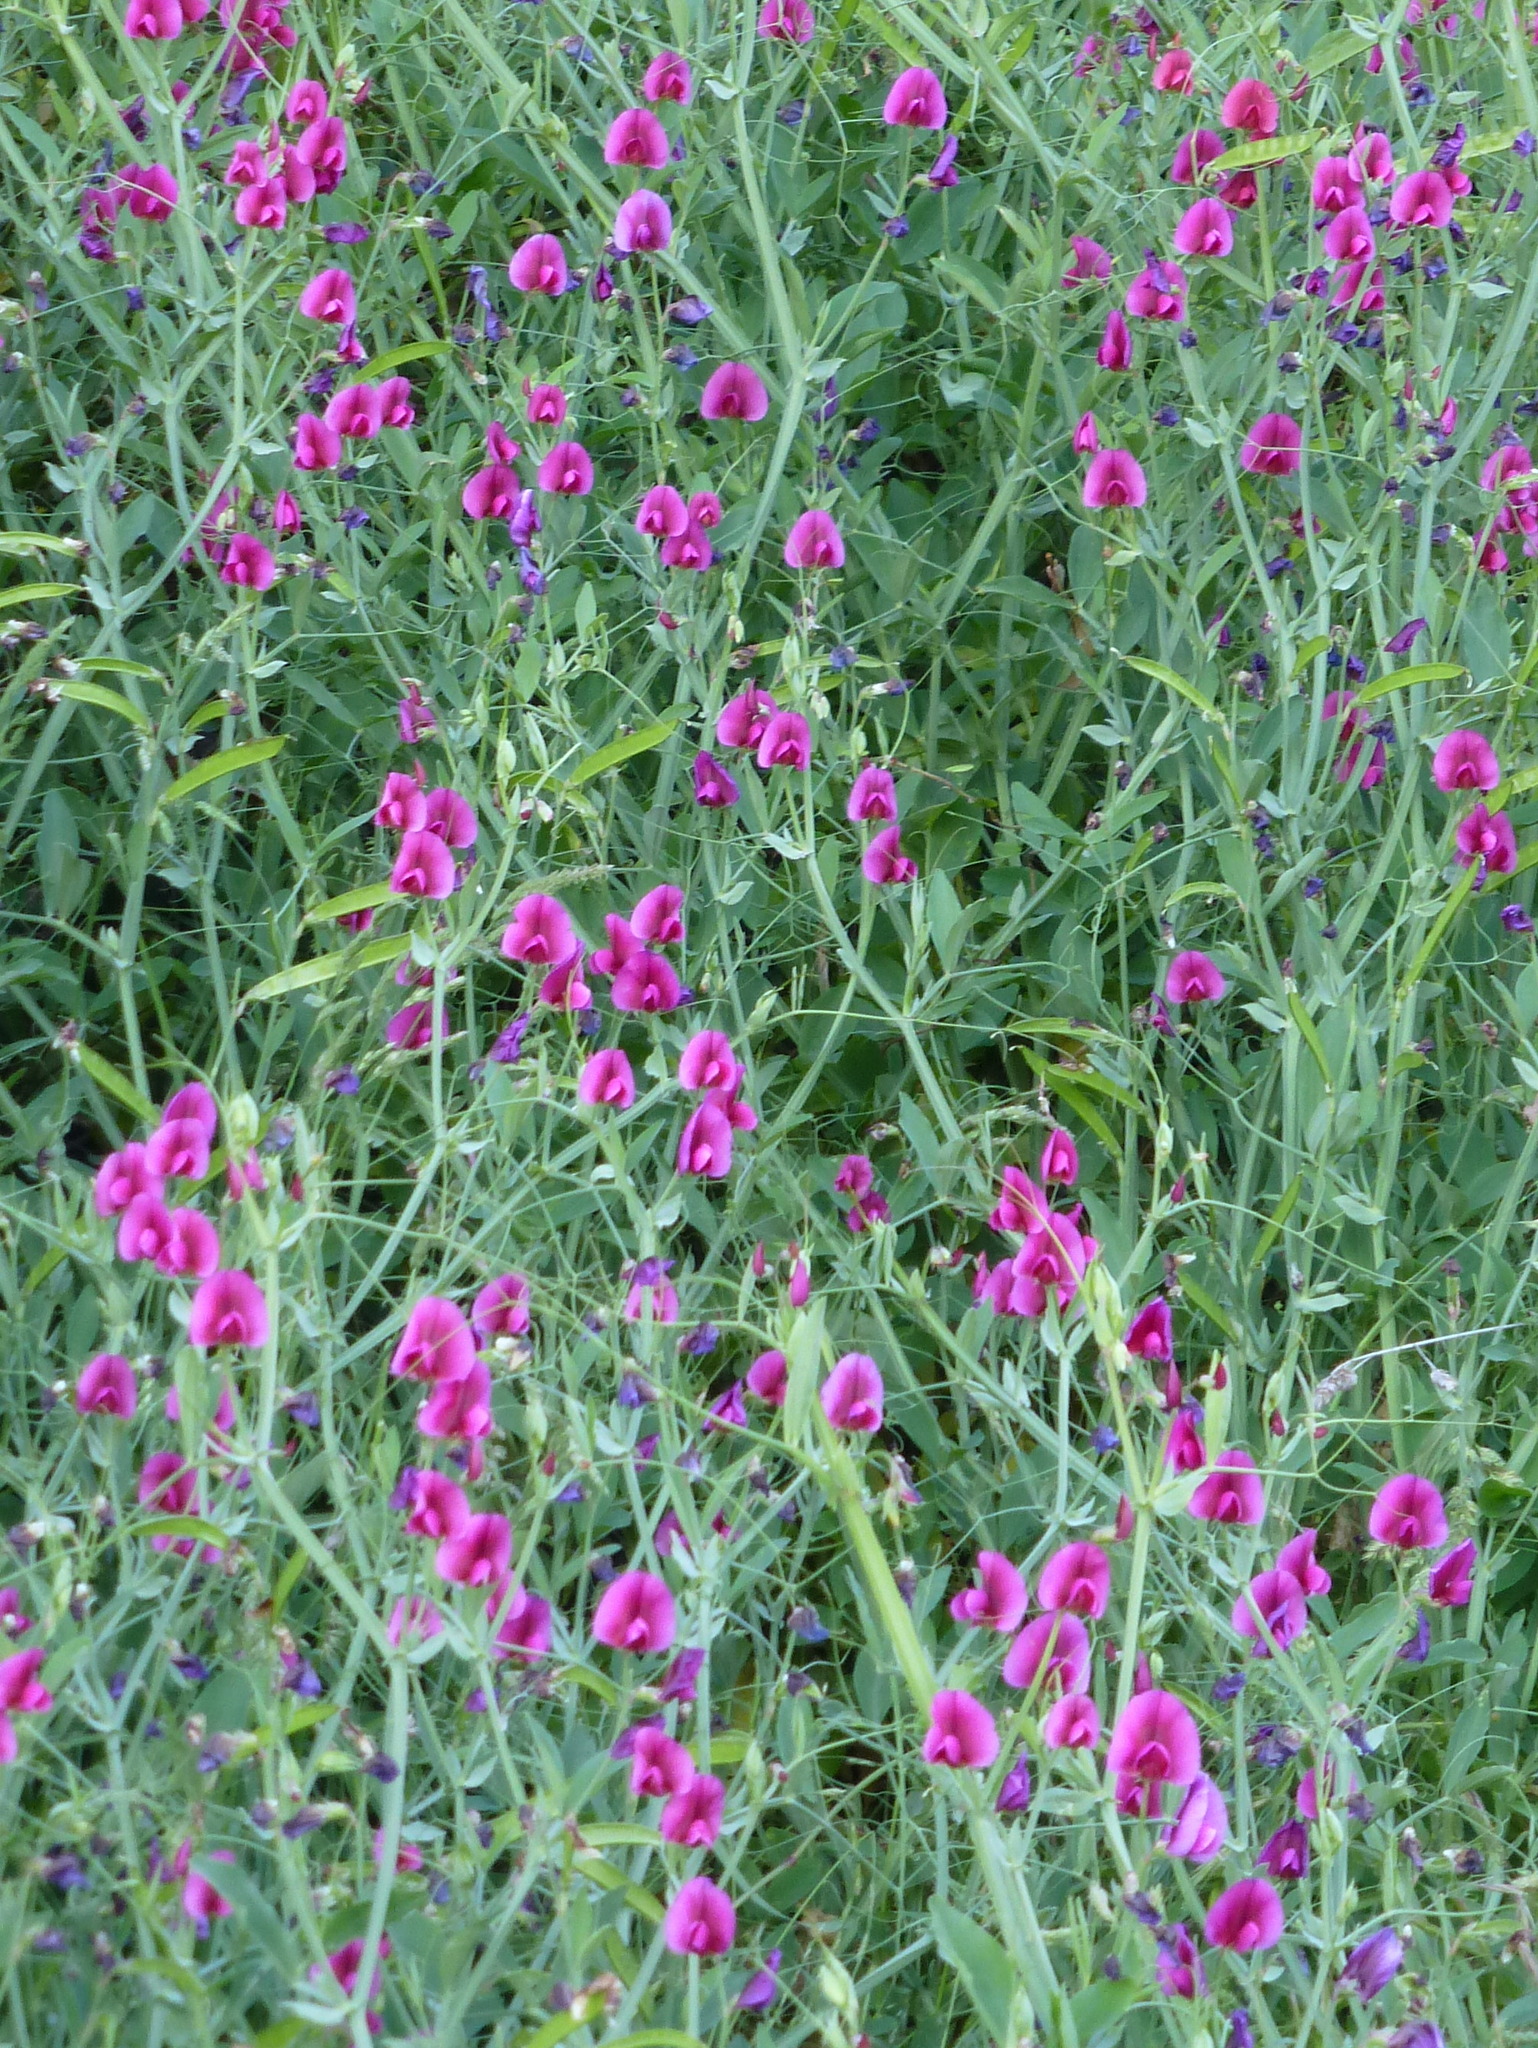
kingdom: Plantae
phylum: Tracheophyta
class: Magnoliopsida
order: Fabales
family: Fabaceae
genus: Lathyrus
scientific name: Lathyrus tingitanus
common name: Tangier pea
